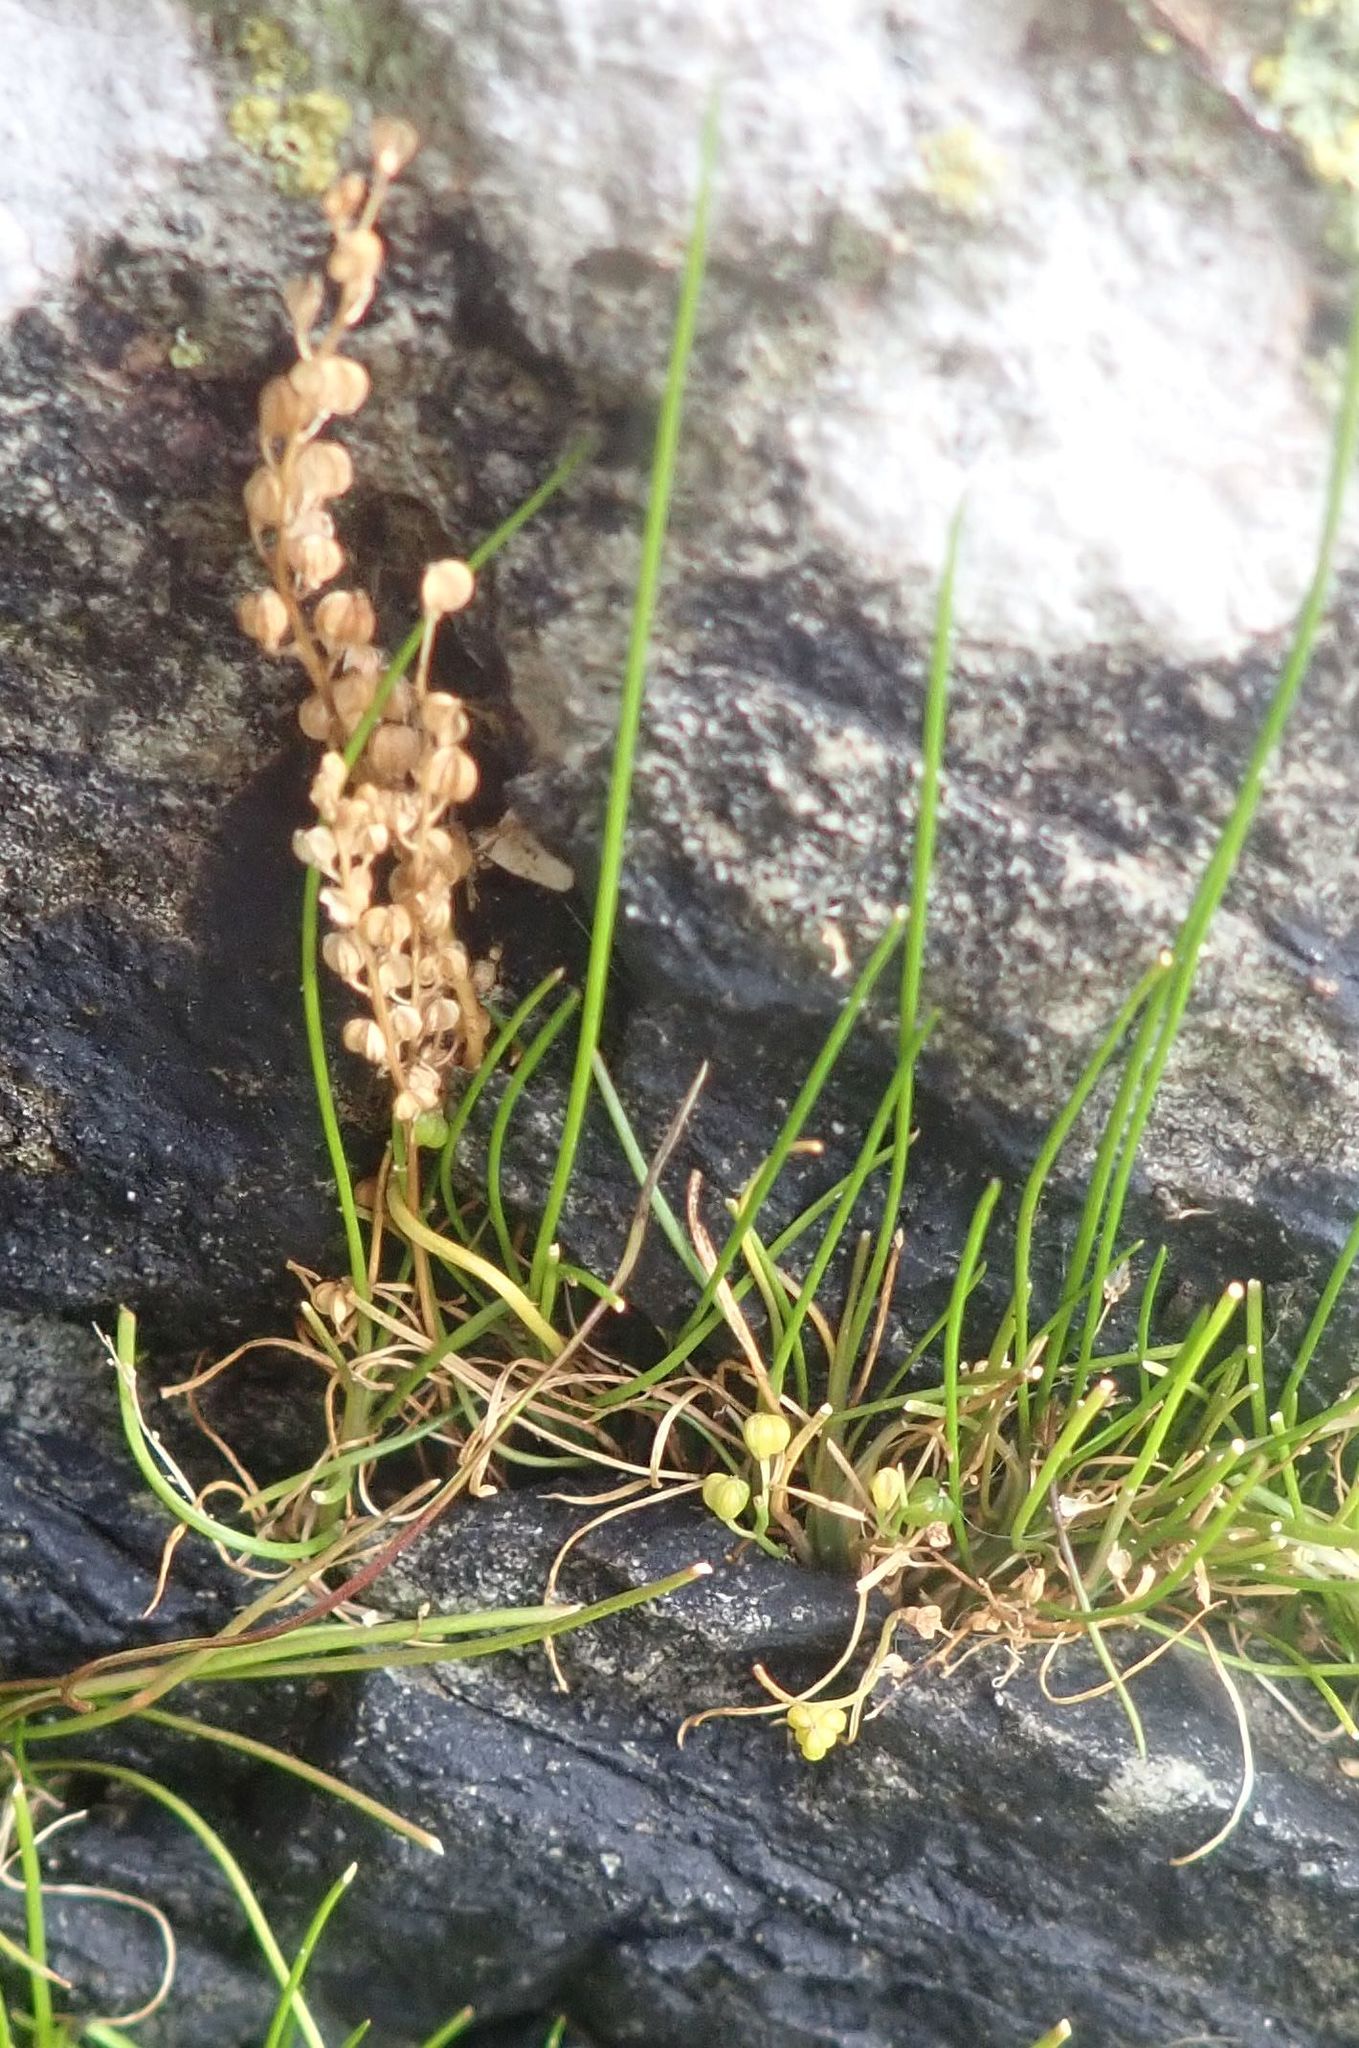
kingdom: Plantae
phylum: Tracheophyta
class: Liliopsida
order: Alismatales
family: Juncaginaceae
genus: Triglochin
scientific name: Triglochin striata
